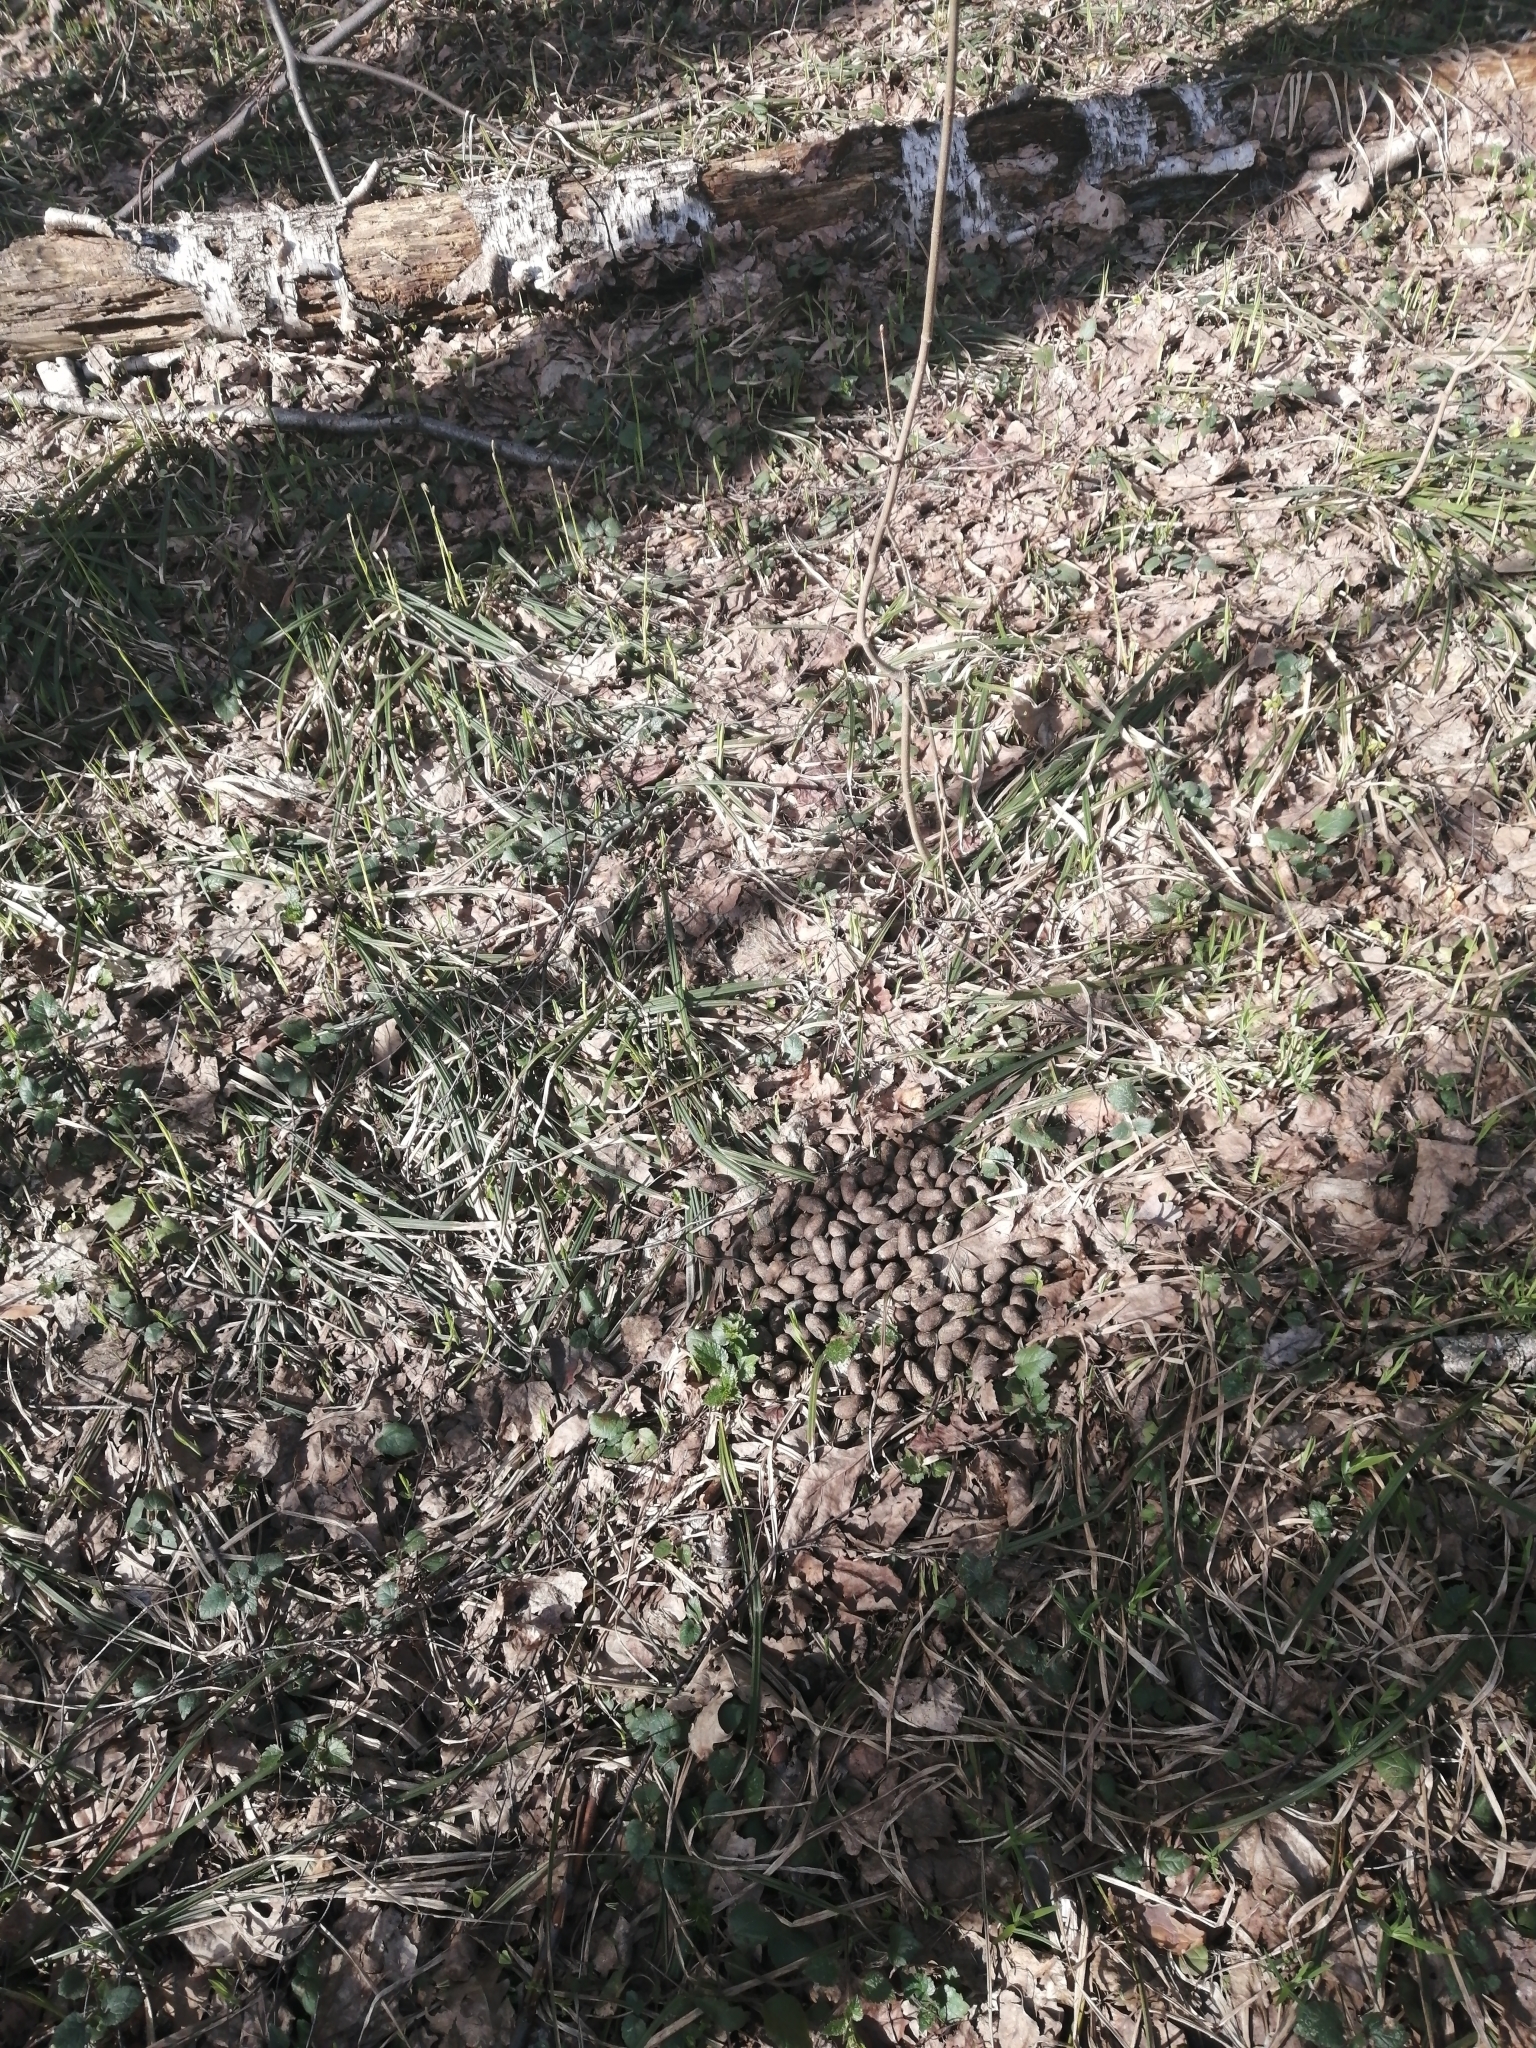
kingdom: Animalia
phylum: Chordata
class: Mammalia
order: Artiodactyla
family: Cervidae
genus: Alces
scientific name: Alces alces
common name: Moose
